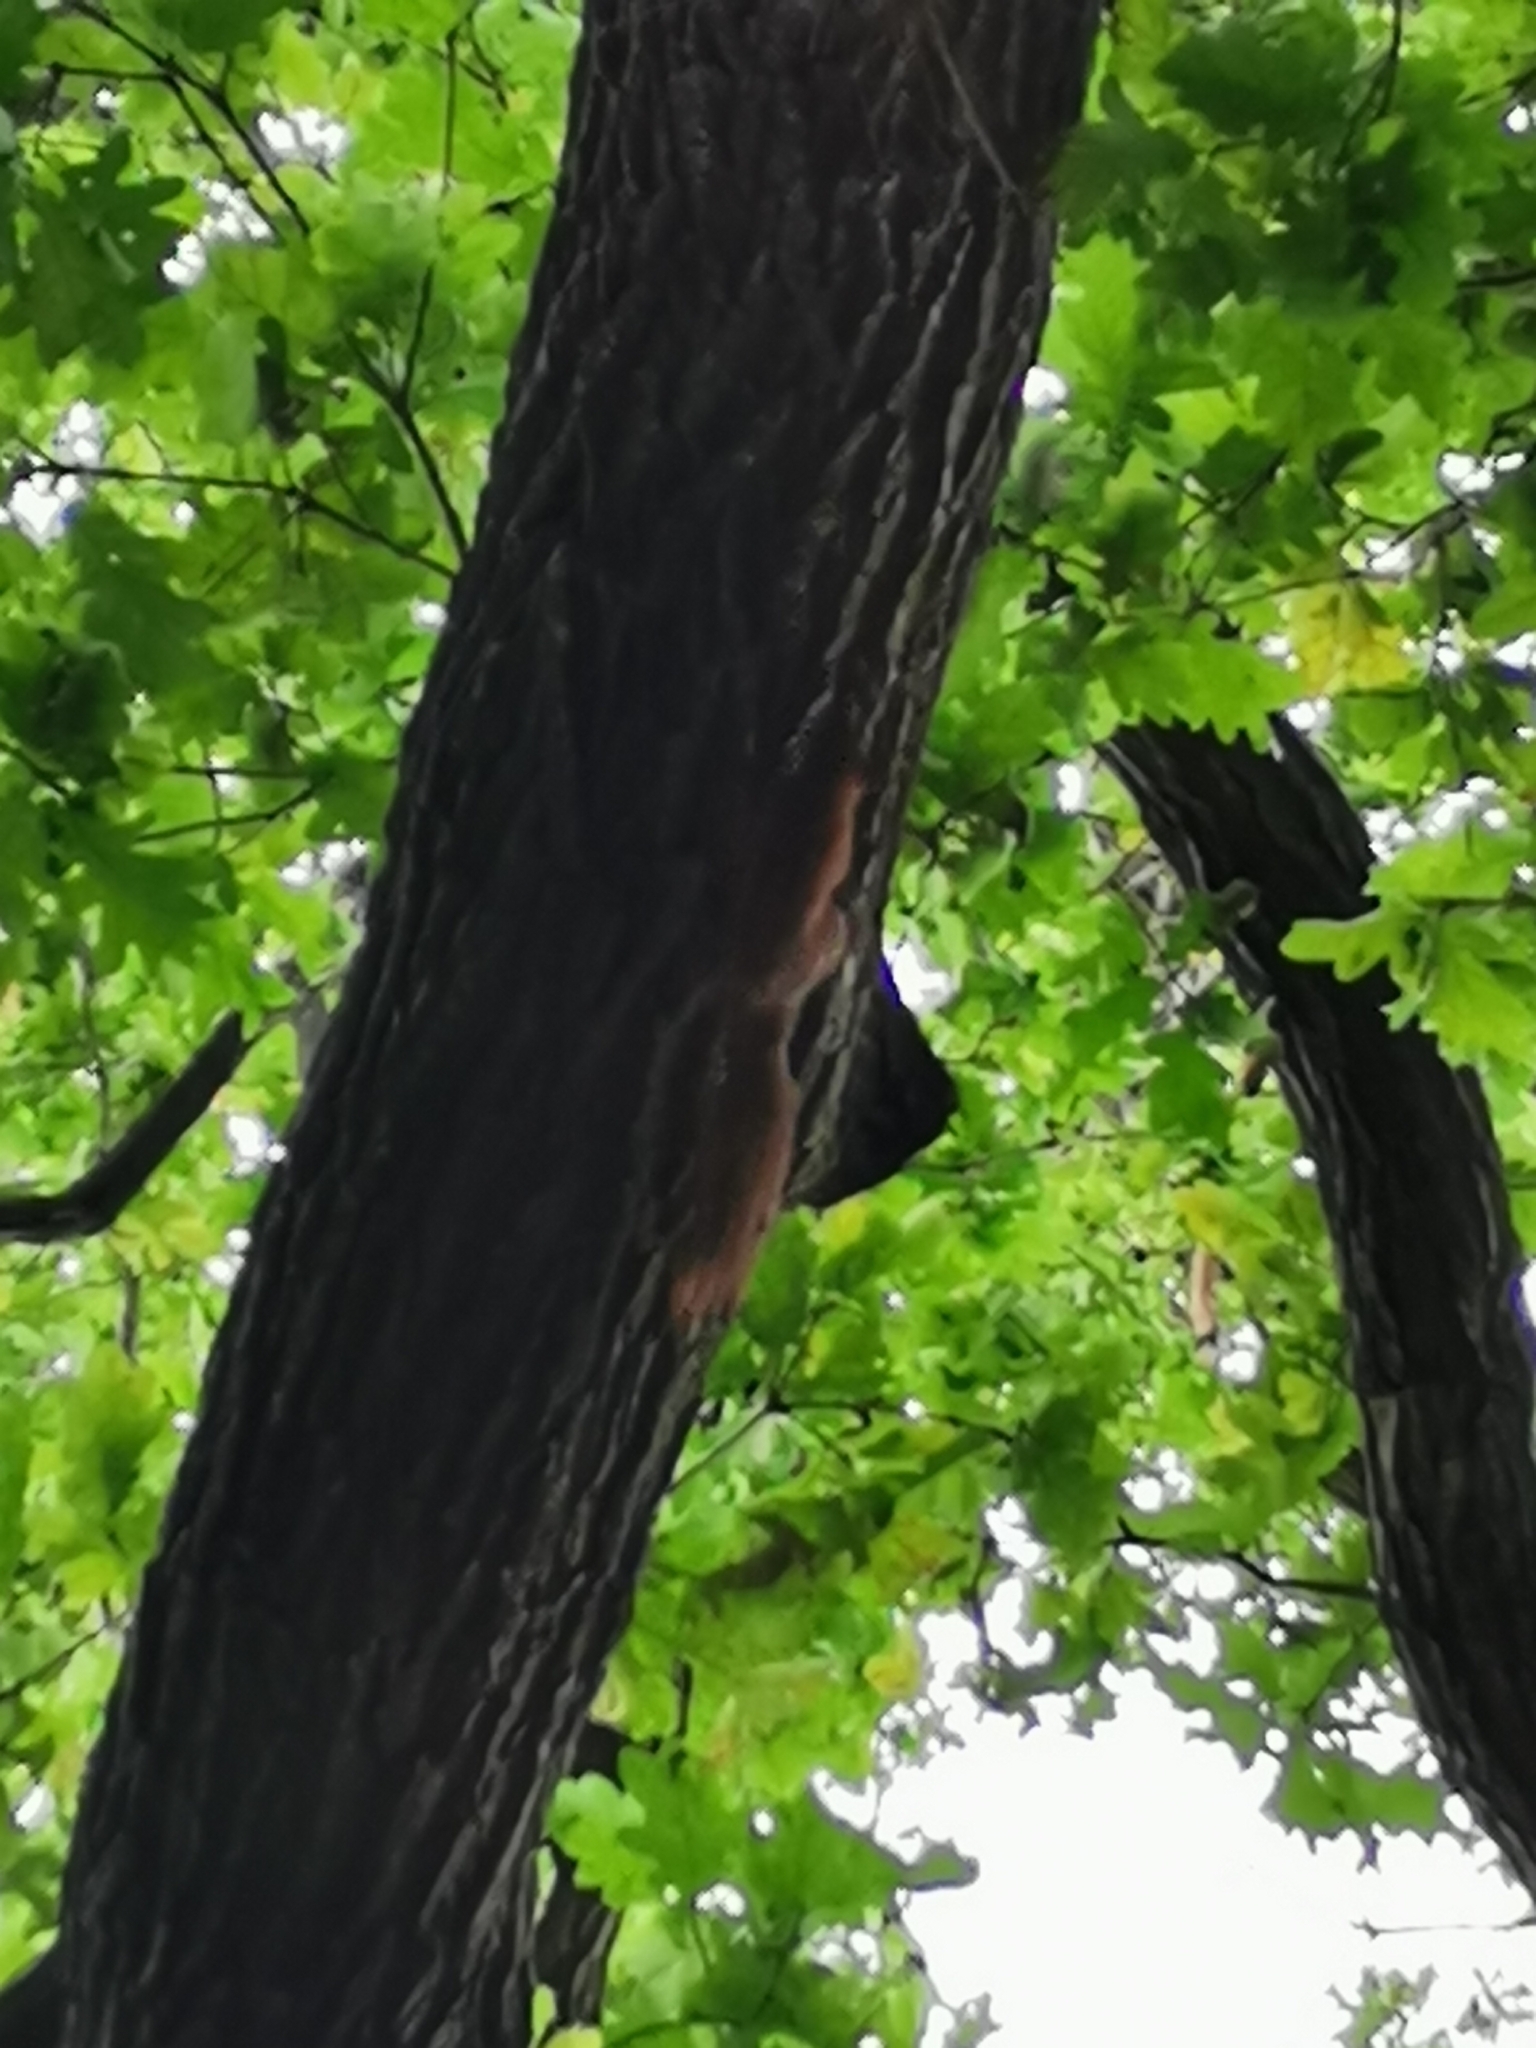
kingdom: Animalia
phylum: Chordata
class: Mammalia
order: Rodentia
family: Sciuridae
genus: Sciurus
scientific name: Sciurus vulgaris
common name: Eurasian red squirrel
